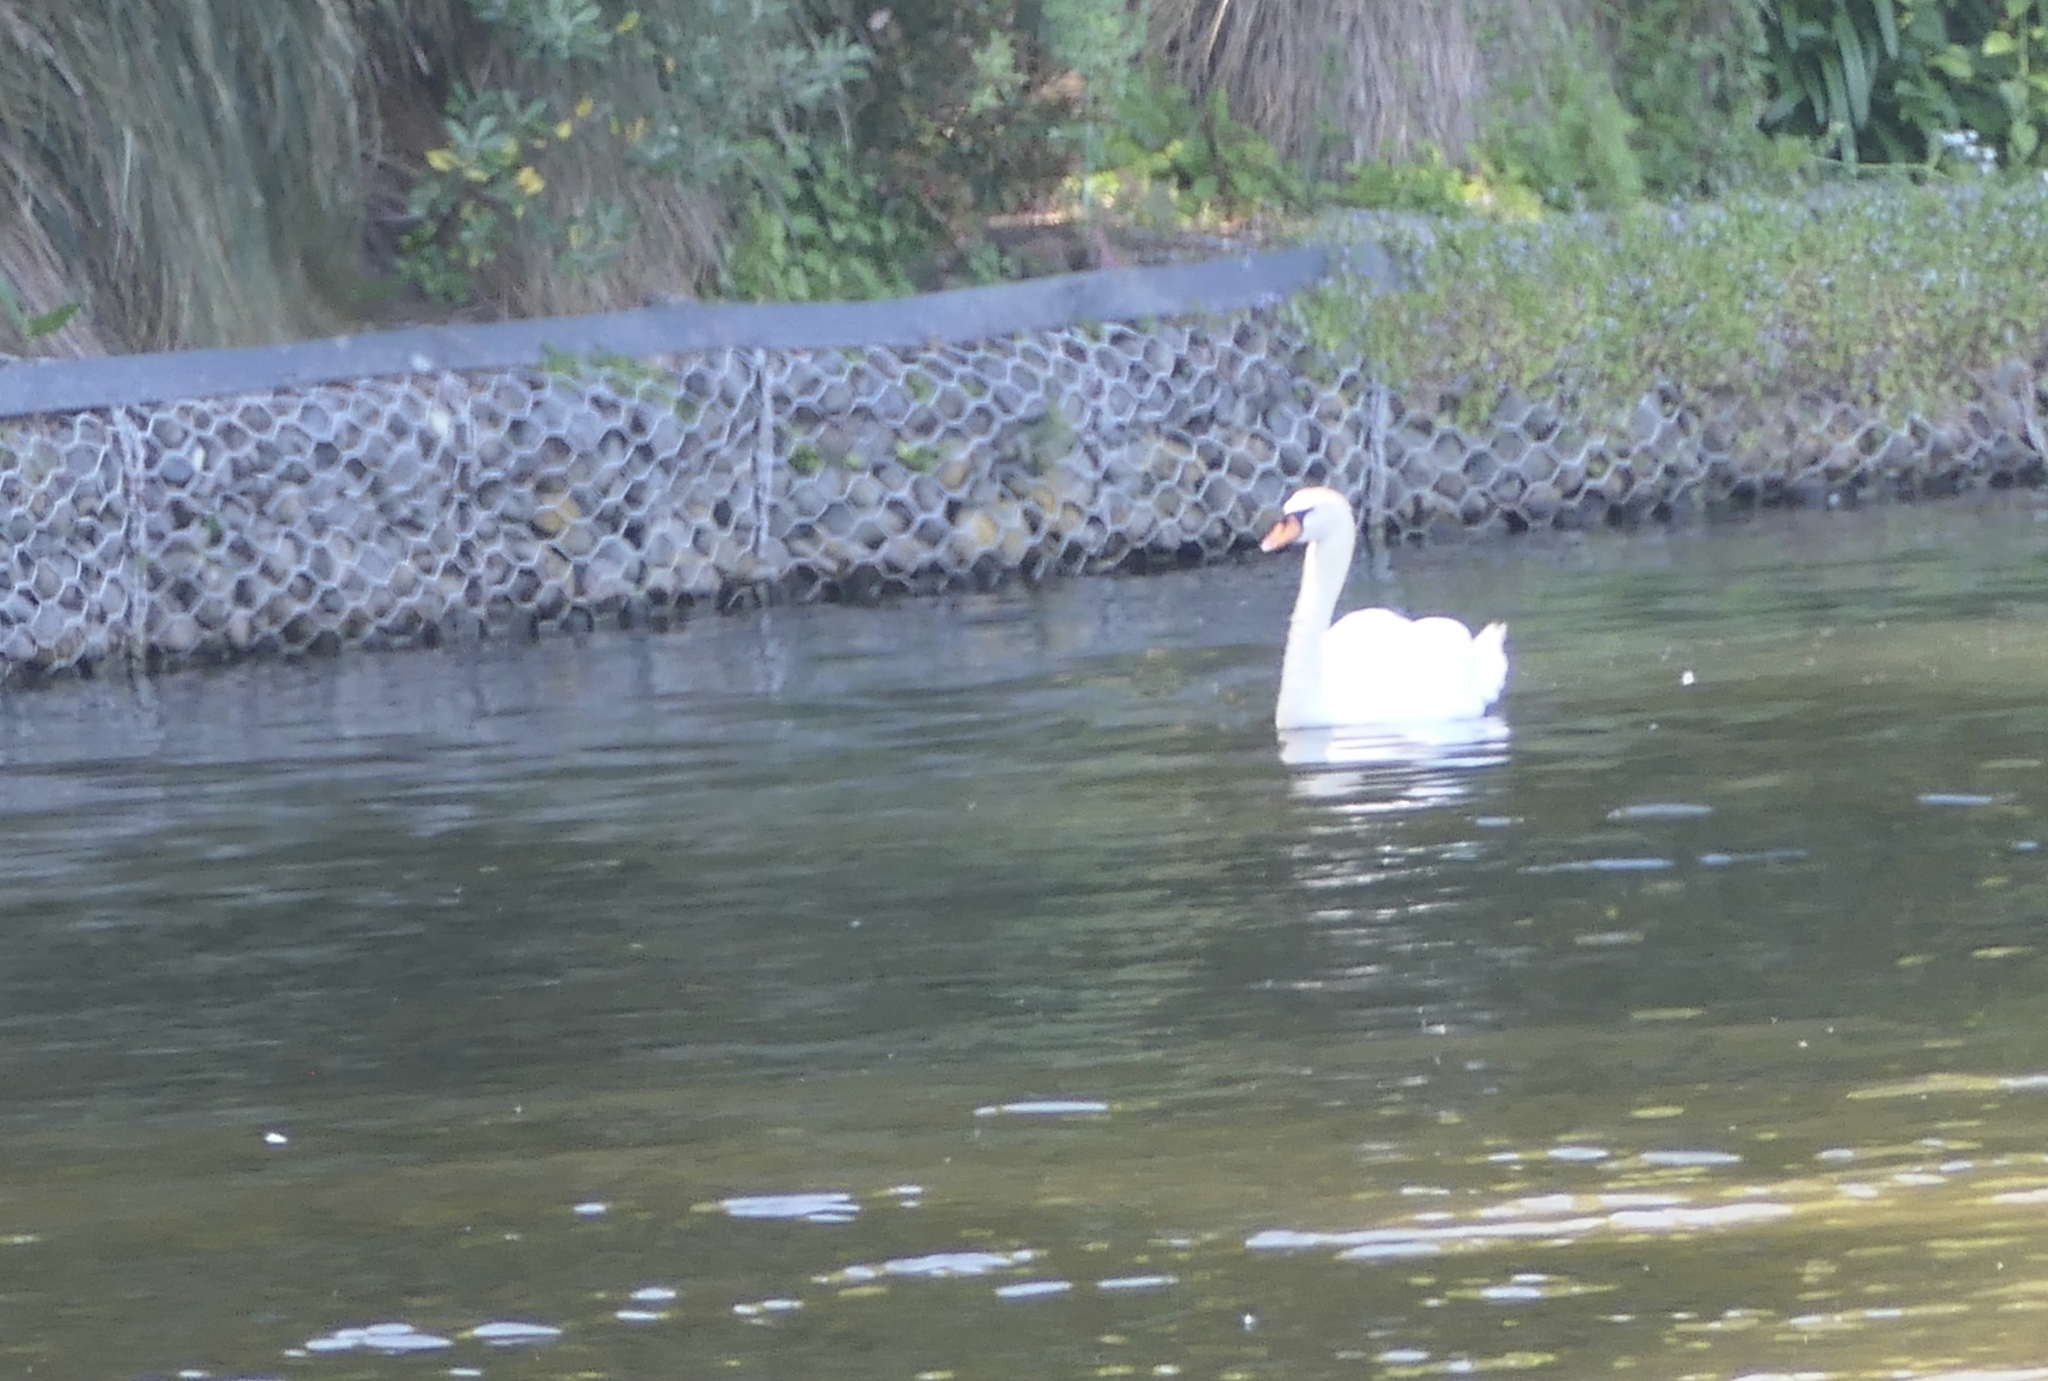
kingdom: Animalia
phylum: Chordata
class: Aves
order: Anseriformes
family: Anatidae
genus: Cygnus
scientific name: Cygnus olor
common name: Mute swan
